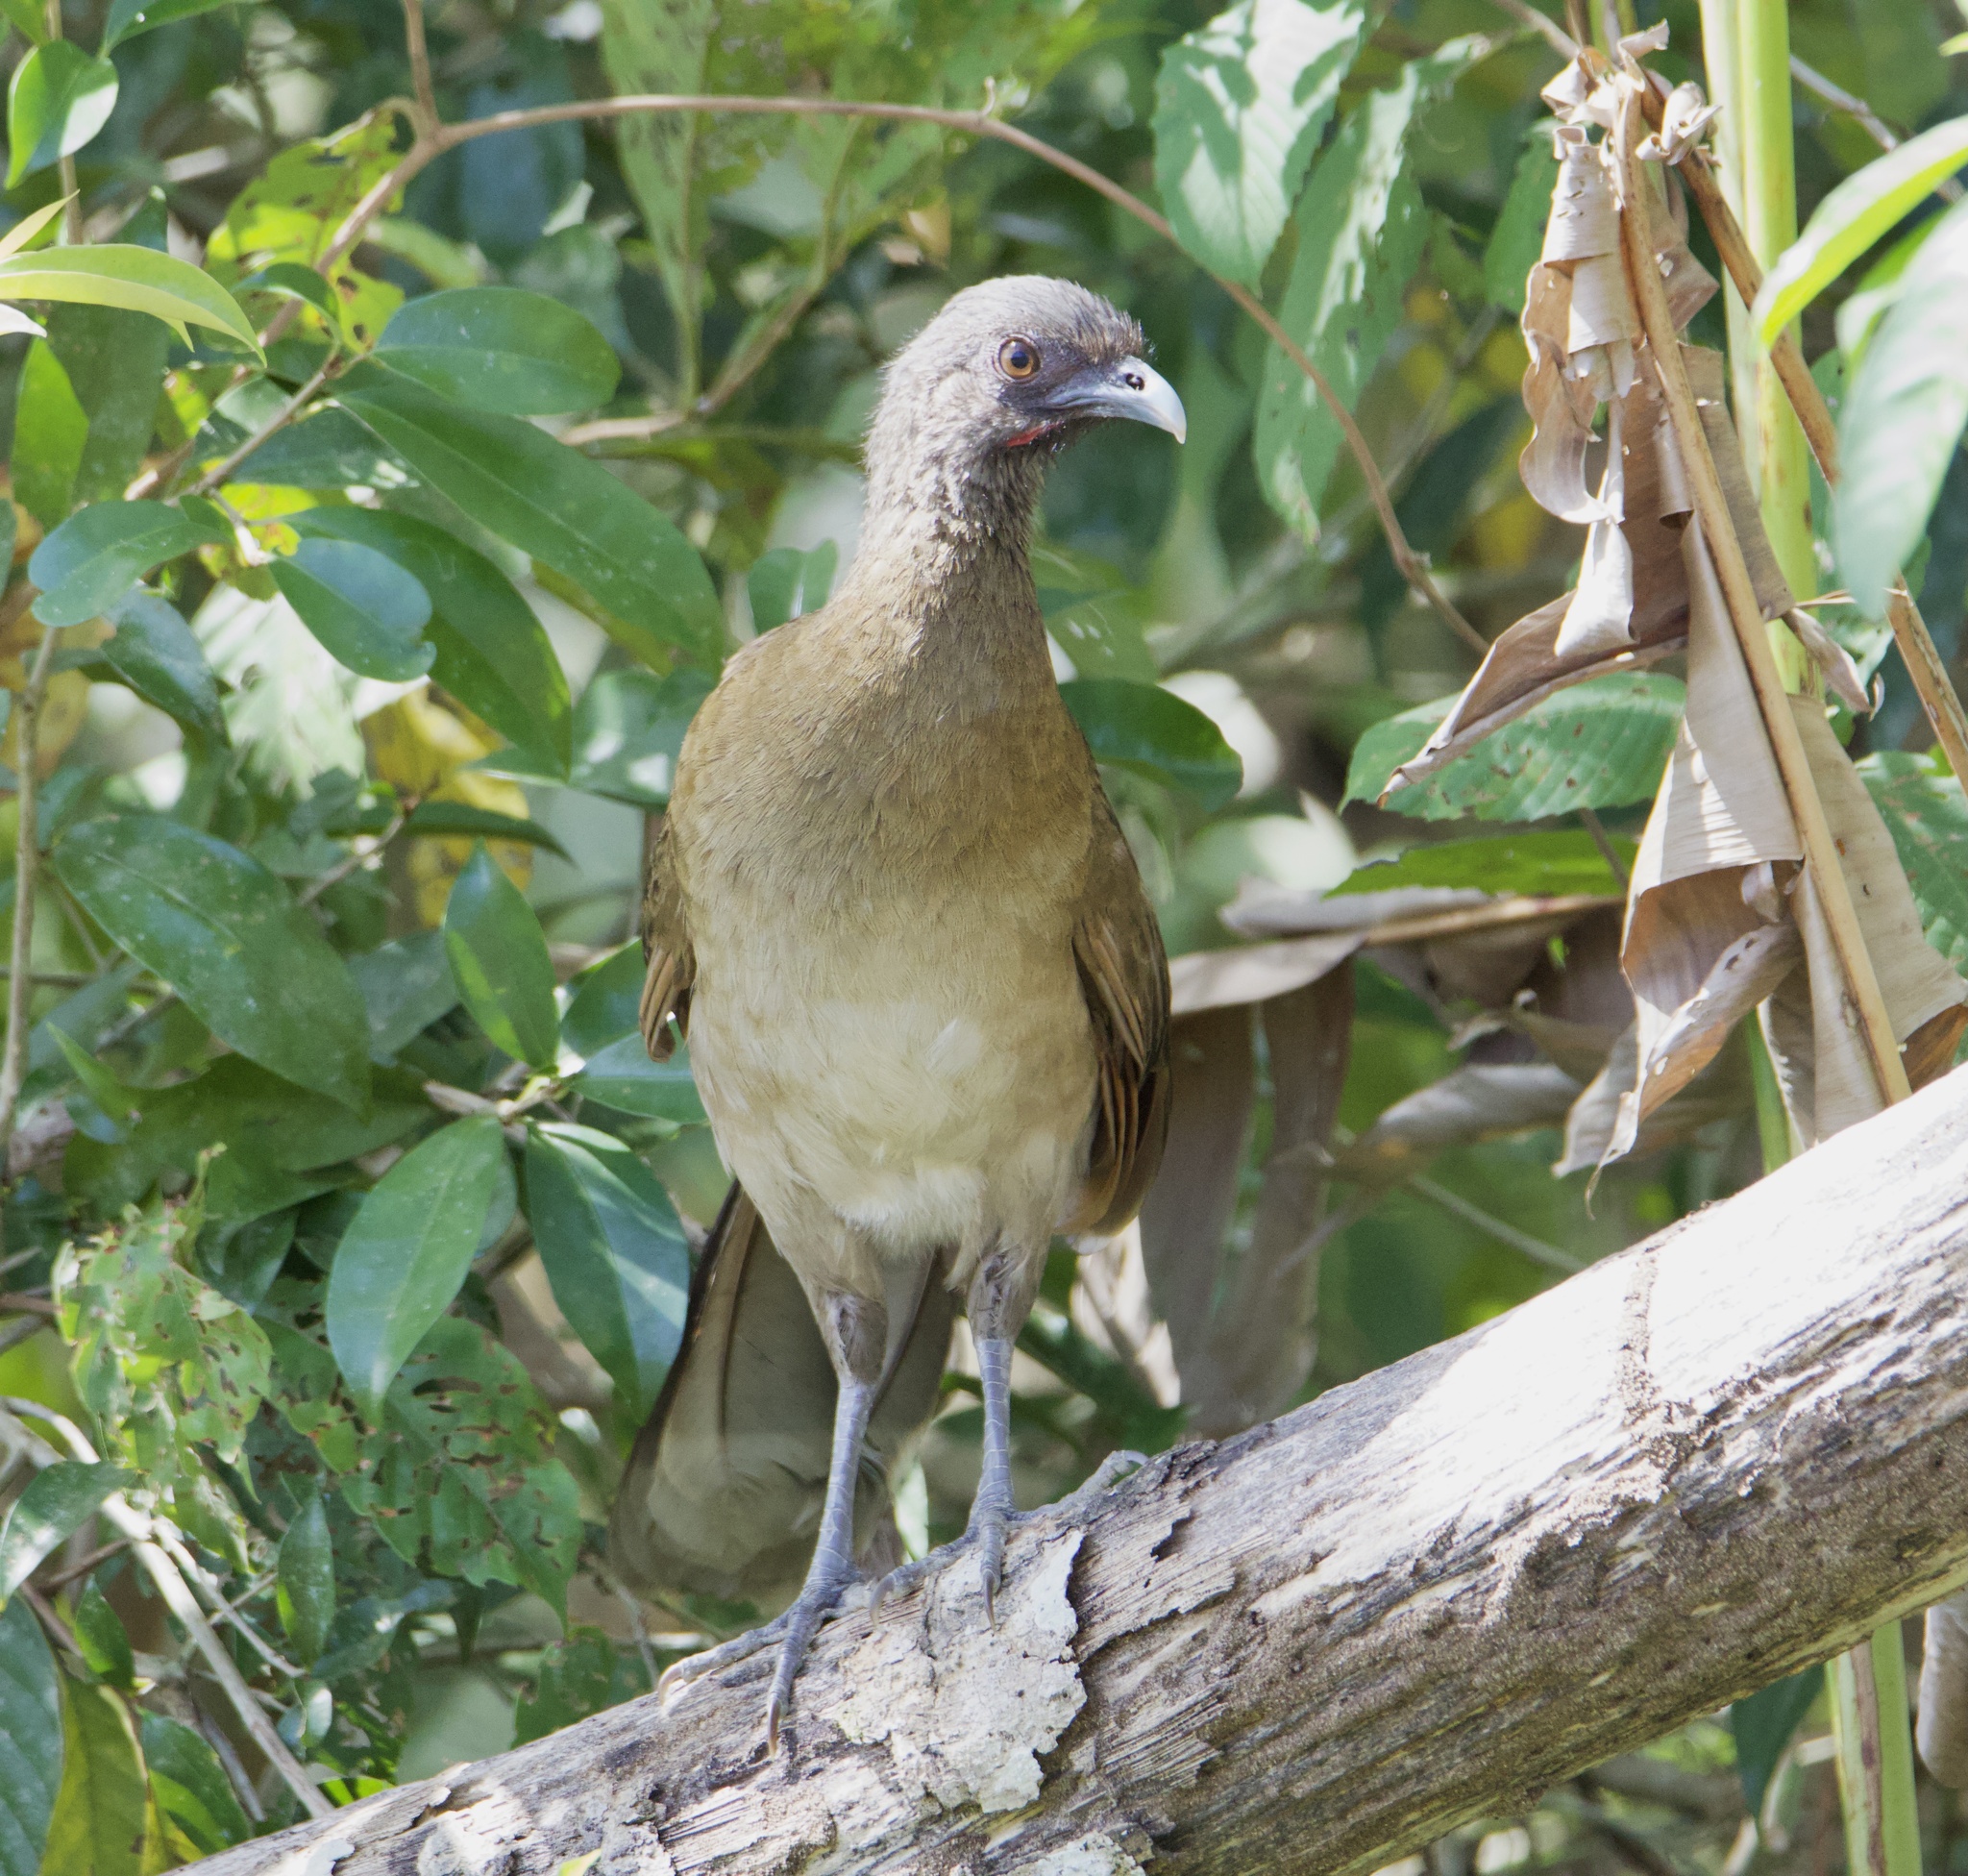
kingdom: Animalia
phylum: Chordata
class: Aves
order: Galliformes
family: Cracidae
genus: Ortalis
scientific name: Ortalis cinereiceps
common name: Grey-headed chachalaca
